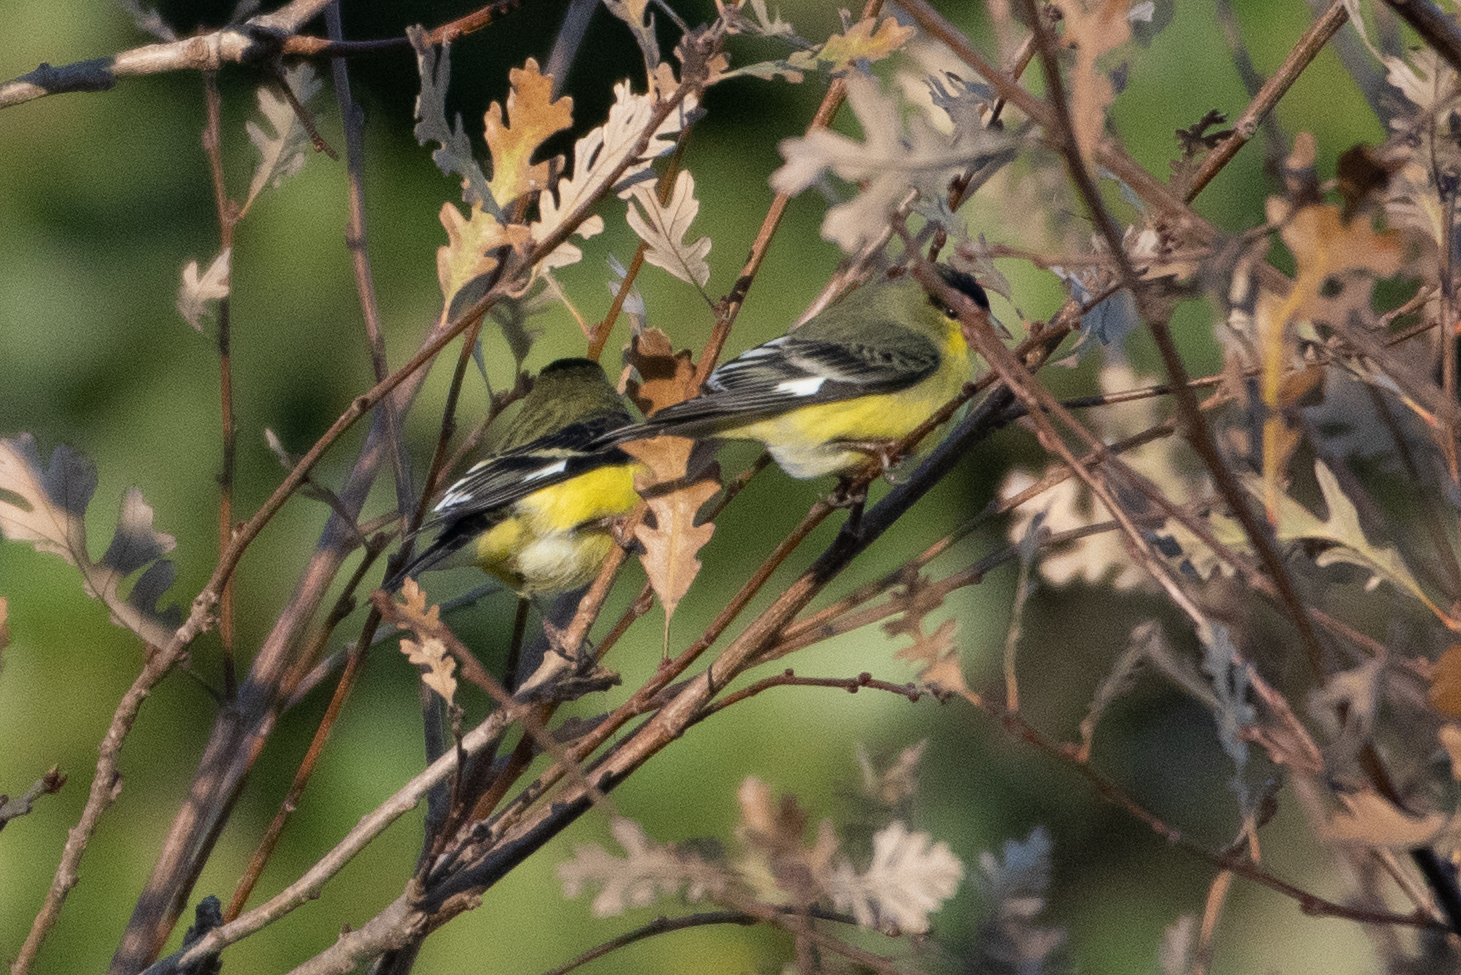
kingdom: Animalia
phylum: Chordata
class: Aves
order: Passeriformes
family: Fringillidae
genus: Spinus
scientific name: Spinus psaltria
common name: Lesser goldfinch
